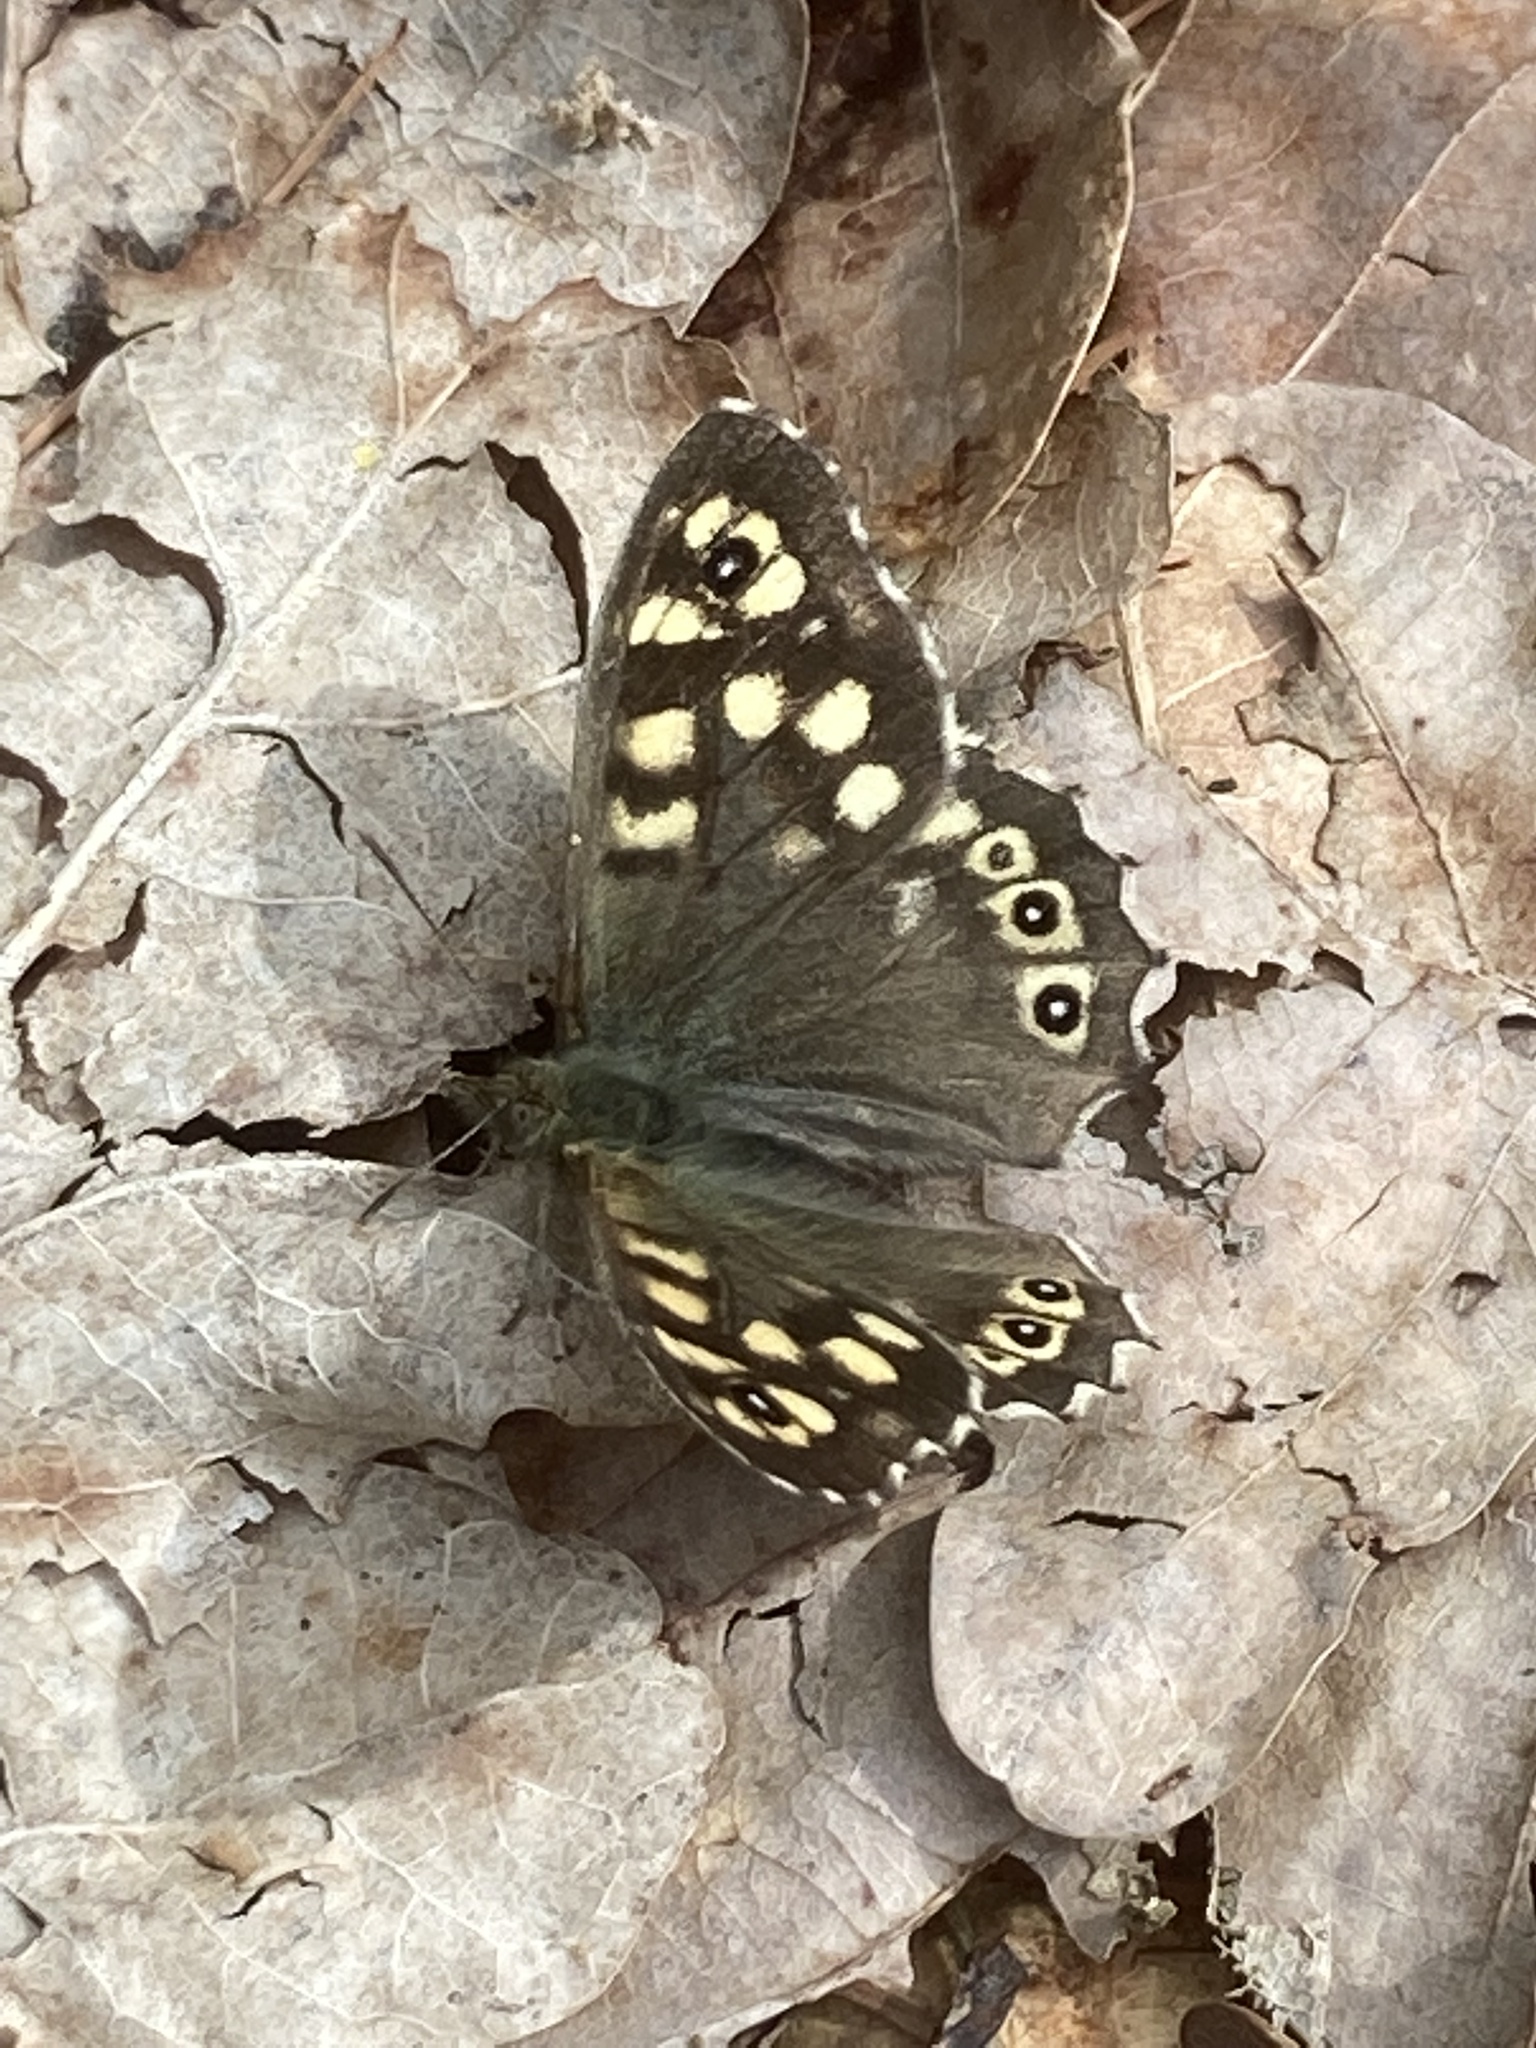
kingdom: Animalia
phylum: Arthropoda
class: Insecta
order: Lepidoptera
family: Nymphalidae
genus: Pararge
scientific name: Pararge aegeria
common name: Speckled wood
